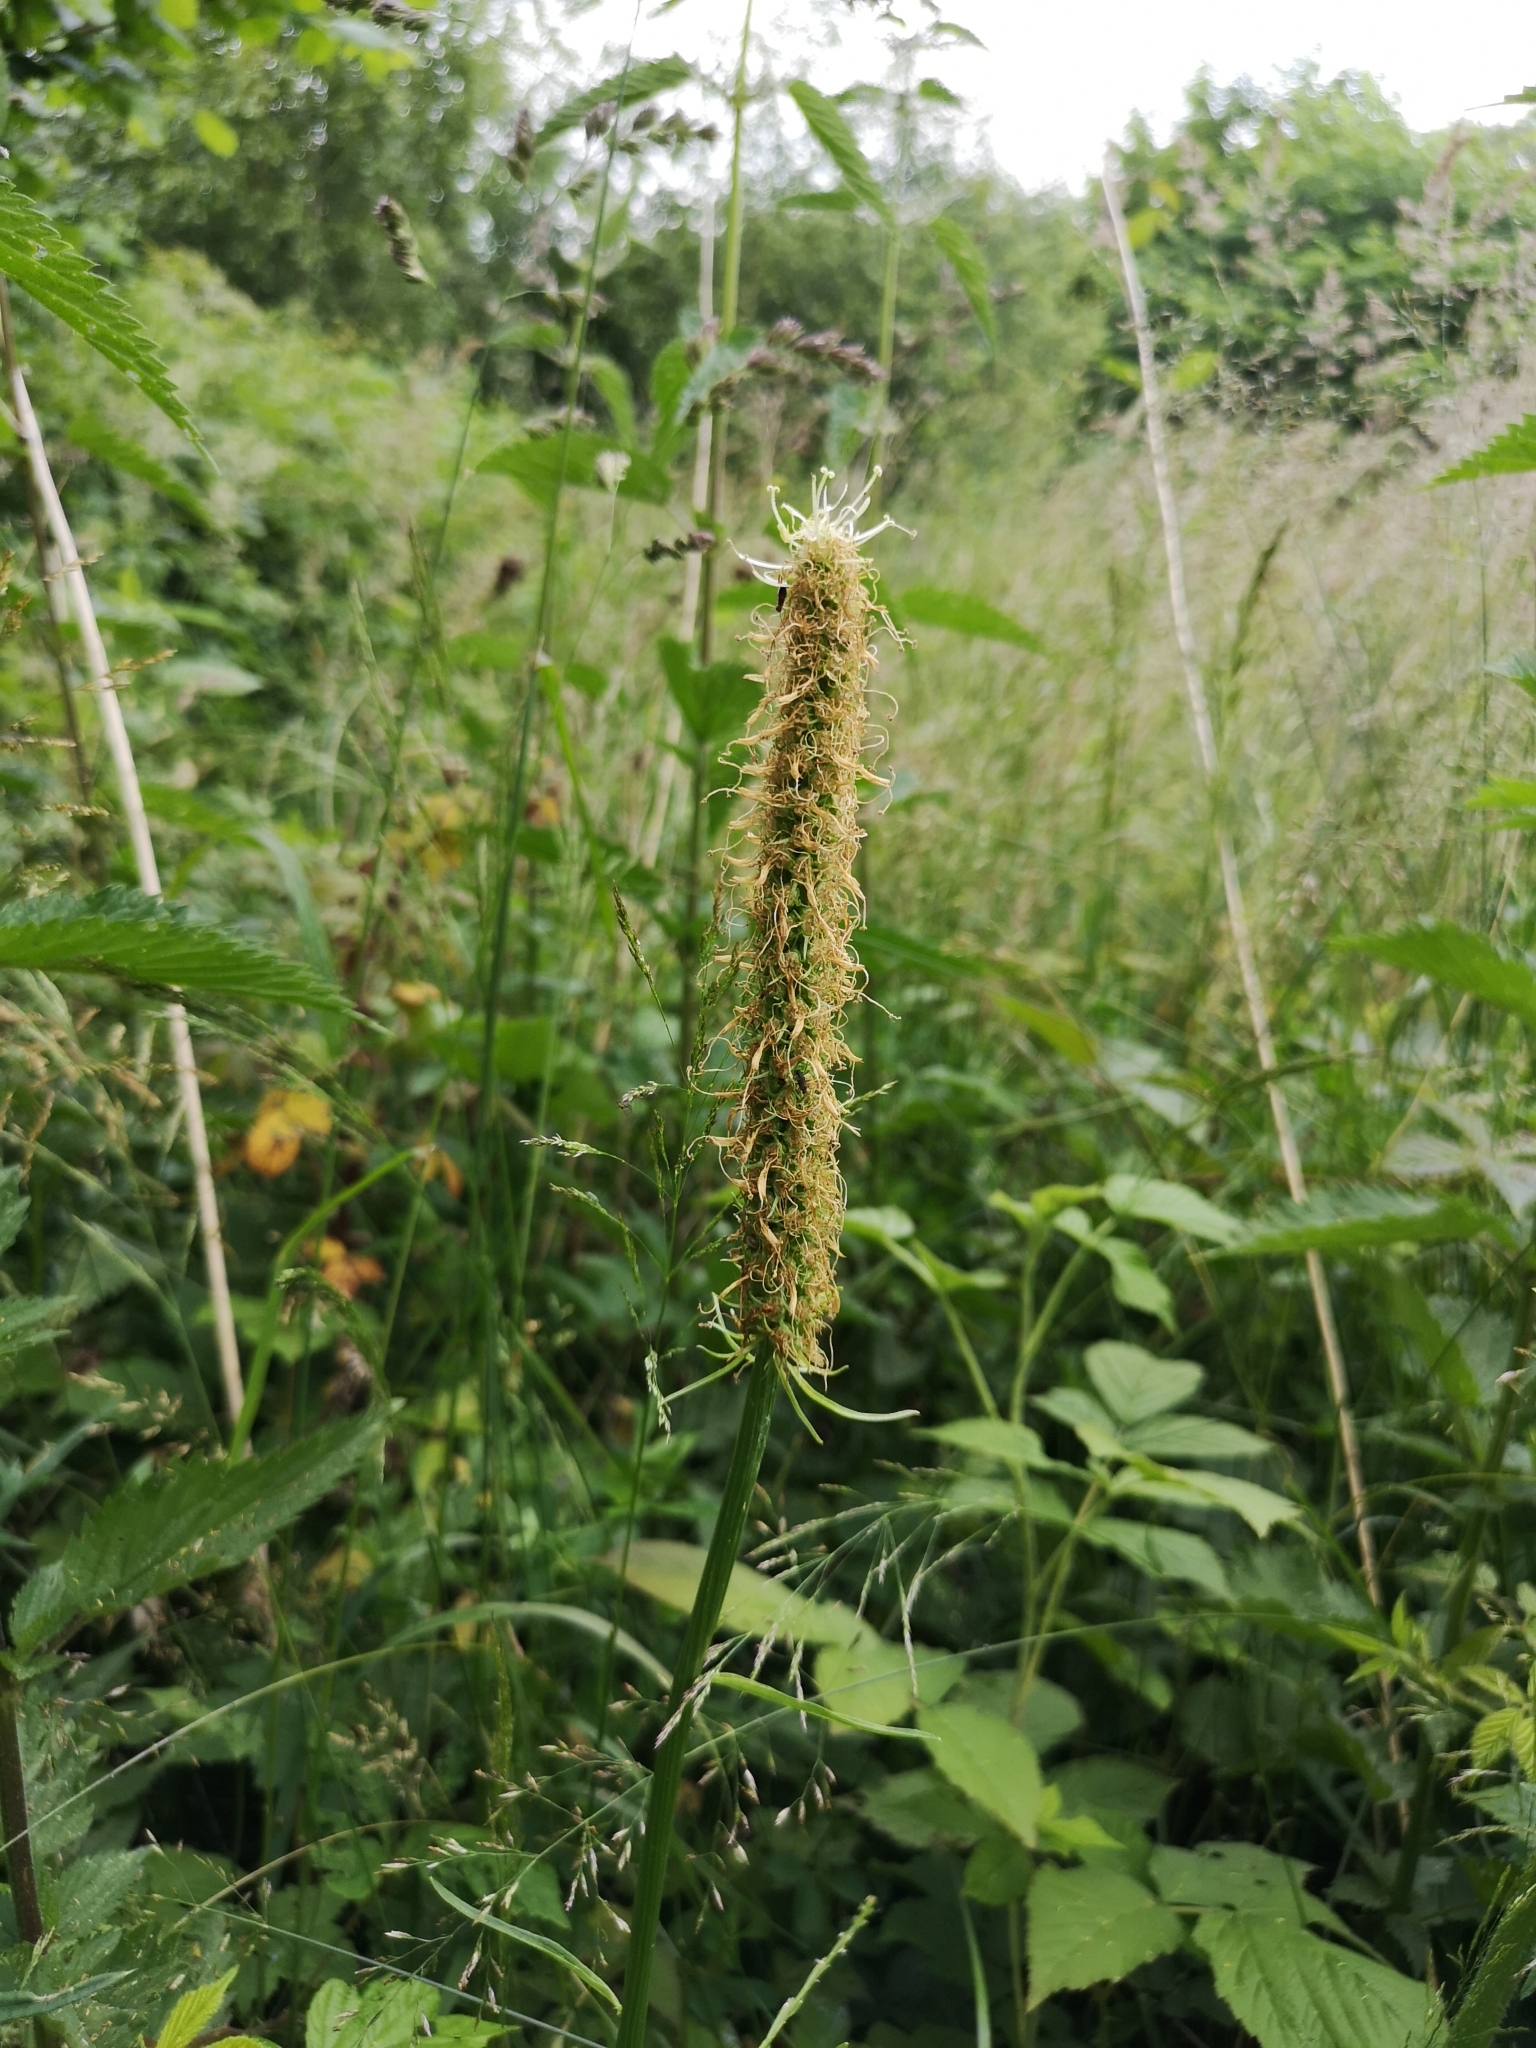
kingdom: Plantae
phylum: Tracheophyta
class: Magnoliopsida
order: Asterales
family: Campanulaceae
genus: Phyteuma
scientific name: Phyteuma spicatum
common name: Spiked rampion
